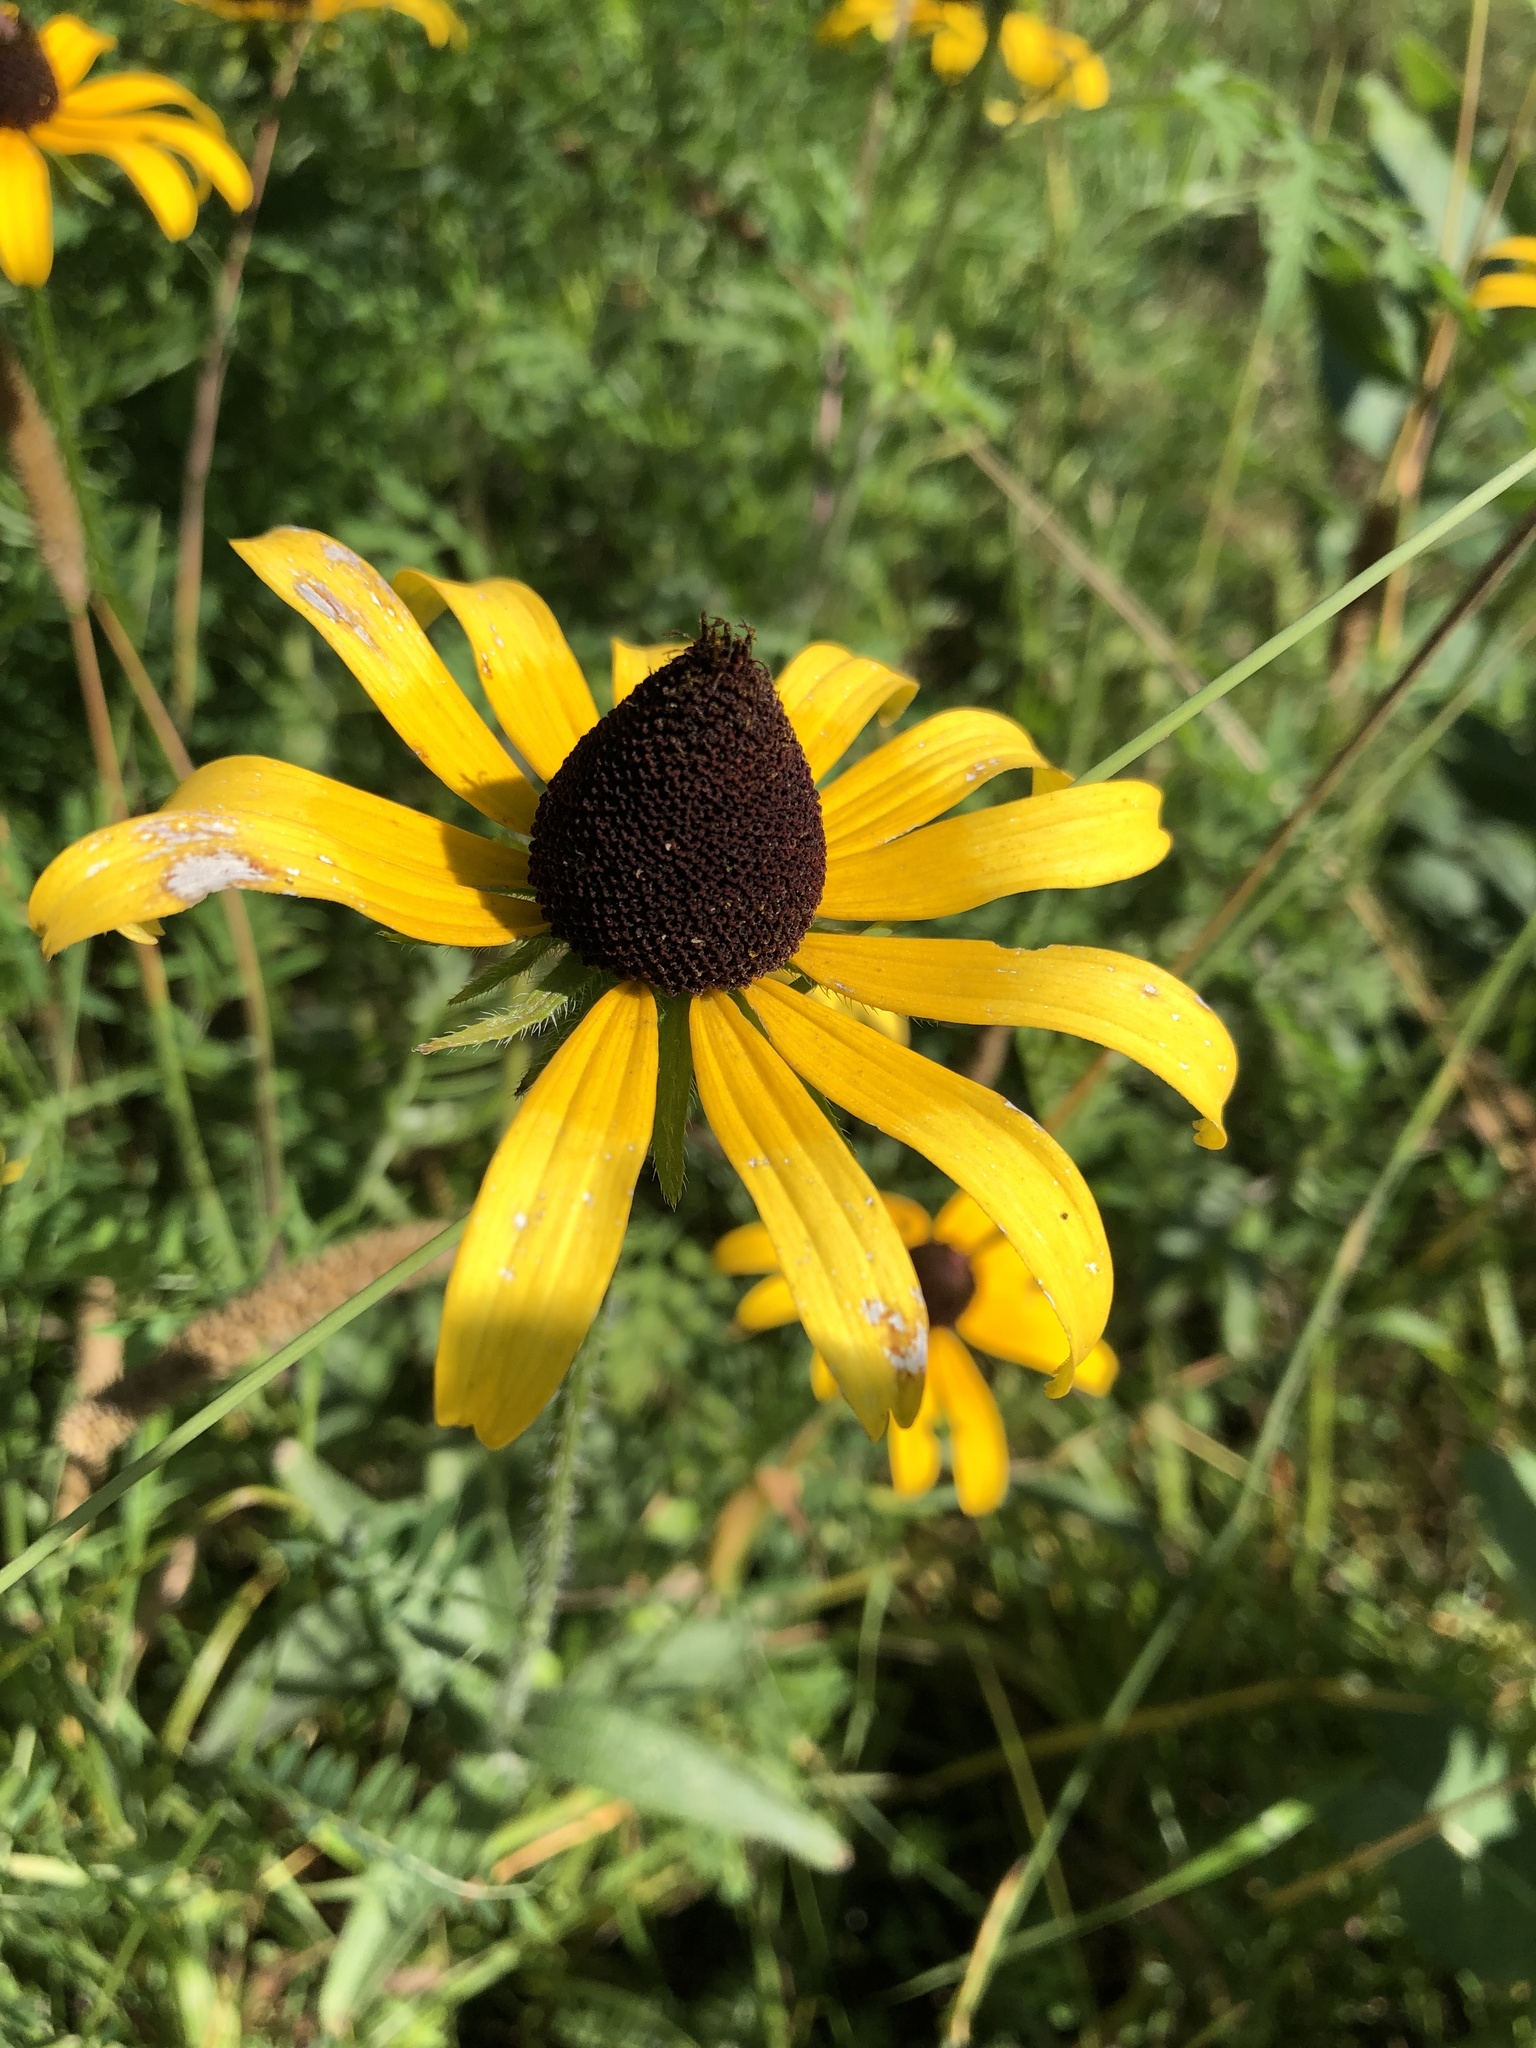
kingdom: Plantae
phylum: Tracheophyta
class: Magnoliopsida
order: Asterales
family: Asteraceae
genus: Rudbeckia
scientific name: Rudbeckia hirta
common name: Black-eyed-susan
